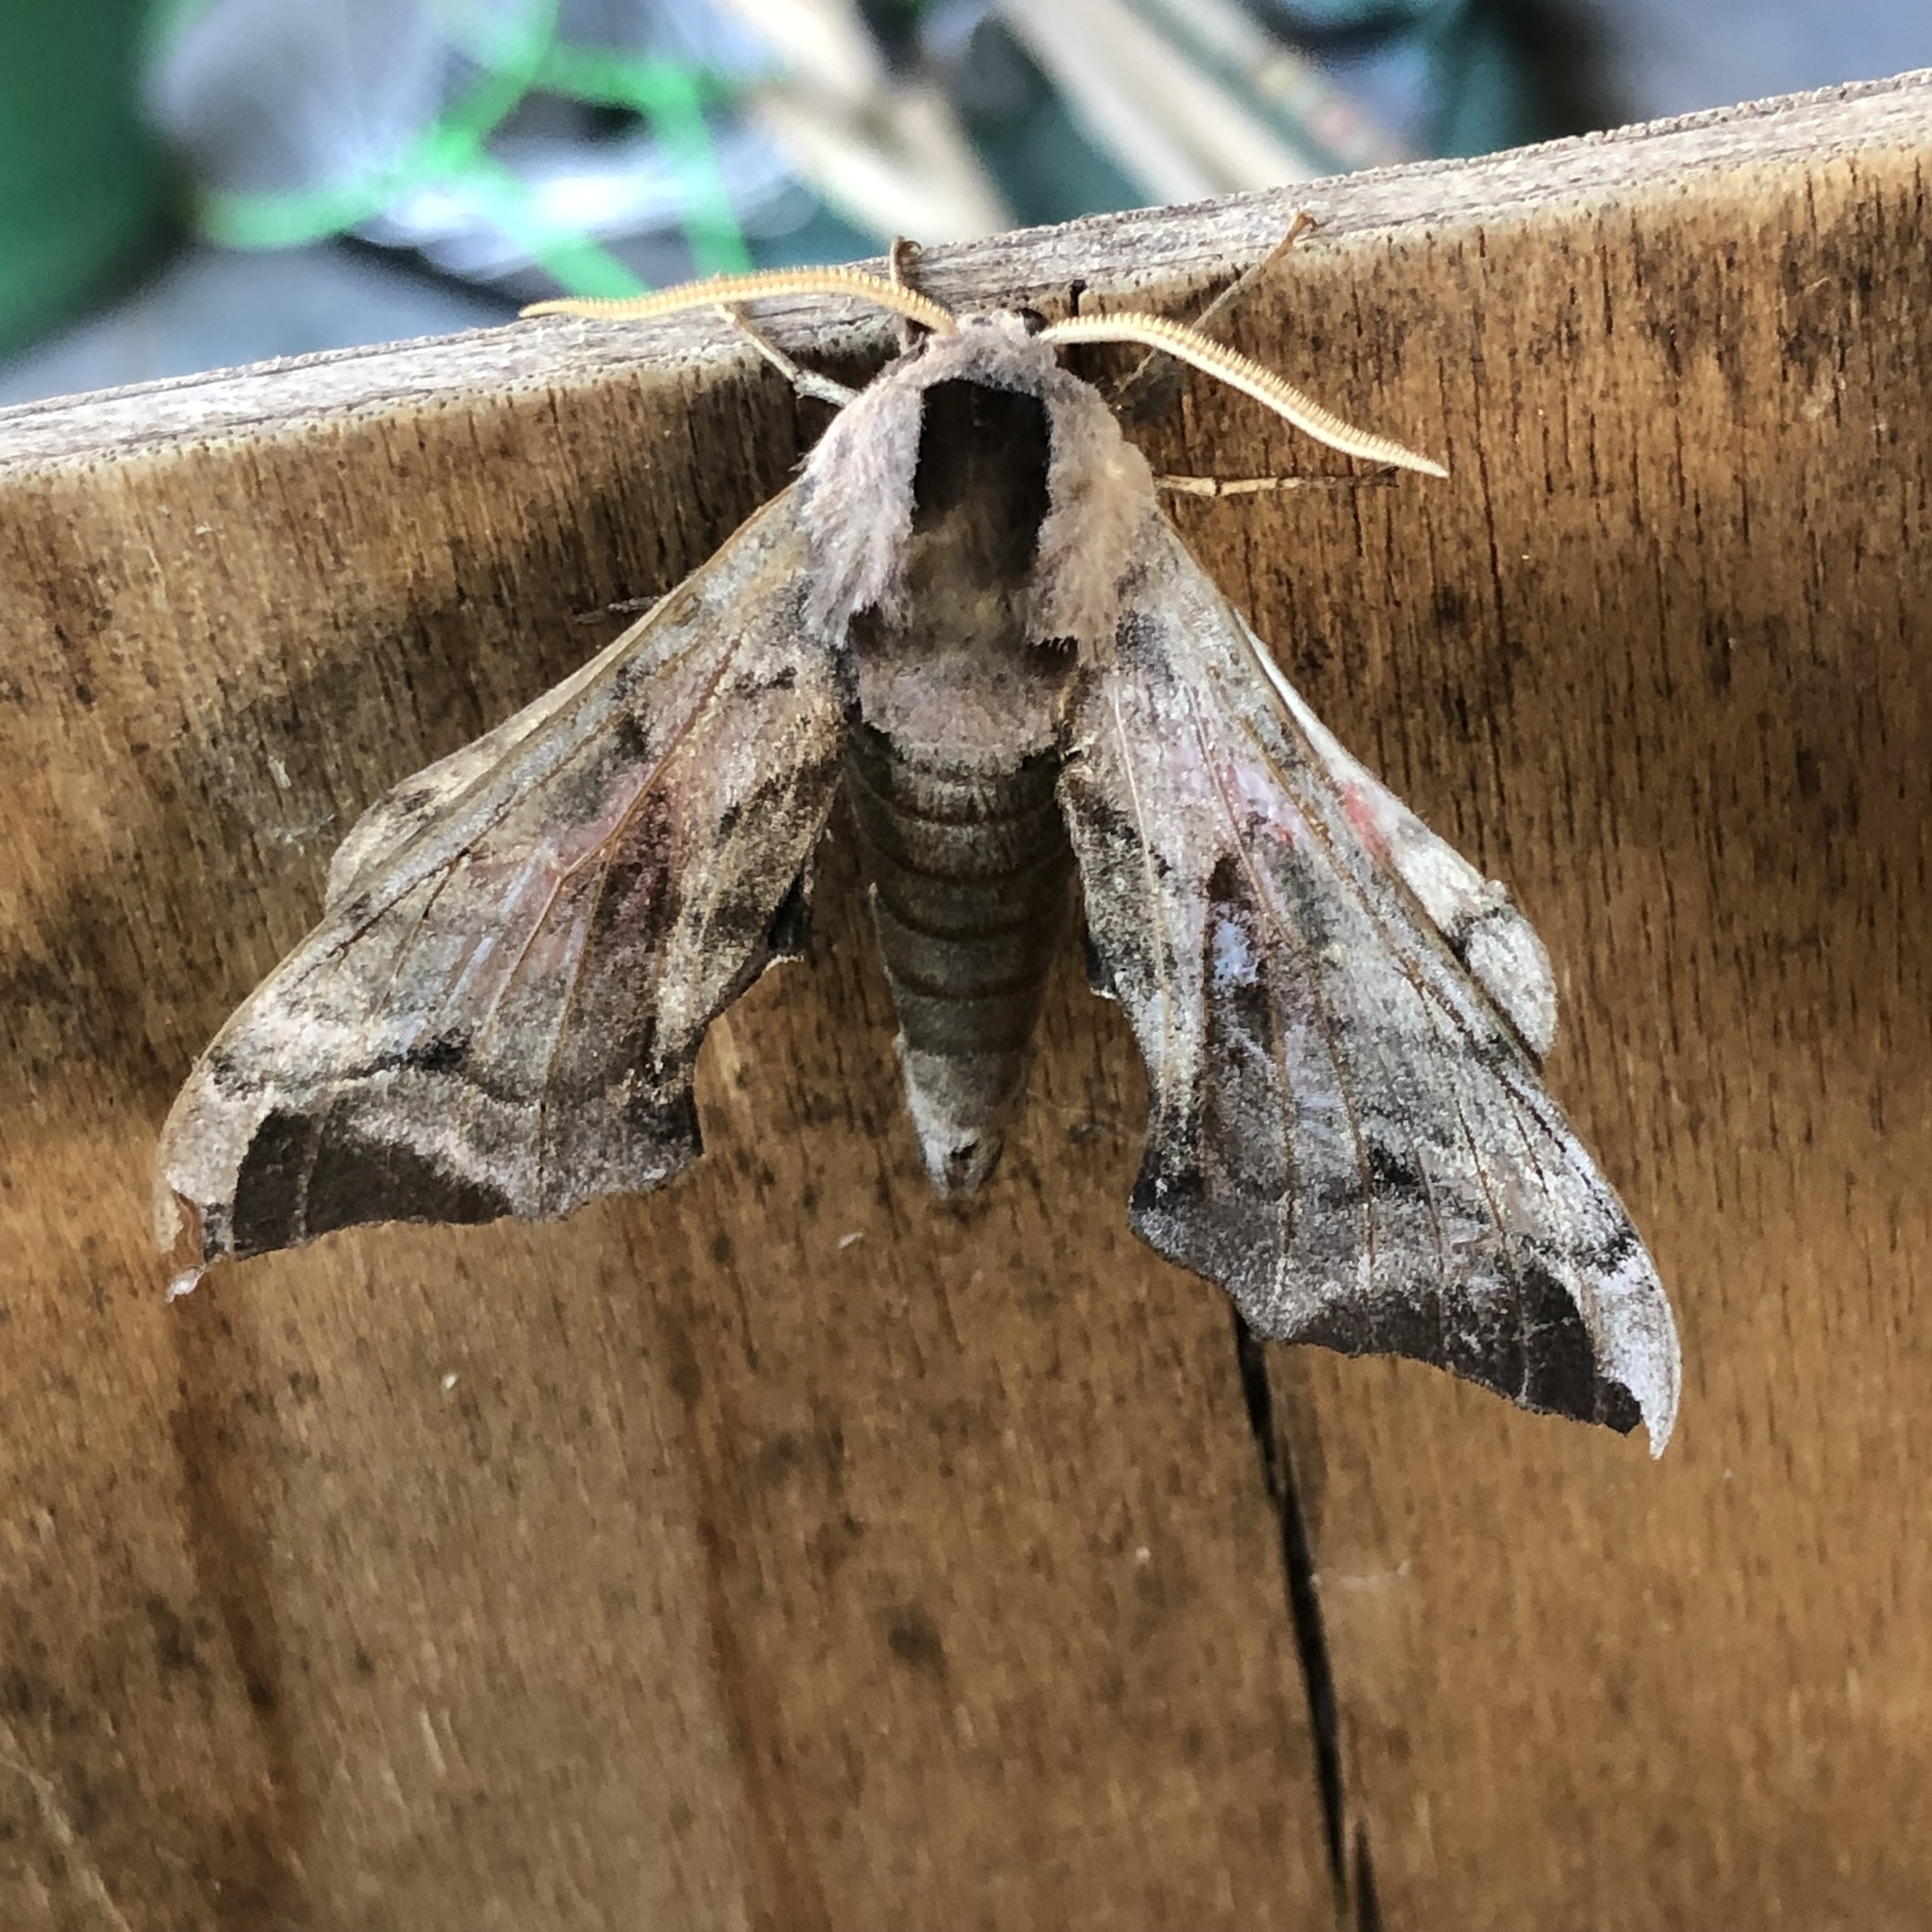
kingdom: Animalia
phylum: Arthropoda
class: Insecta
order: Lepidoptera
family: Sphingidae
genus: Smerinthus
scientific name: Smerinthus ocellata
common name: Eyed hawk-moth
